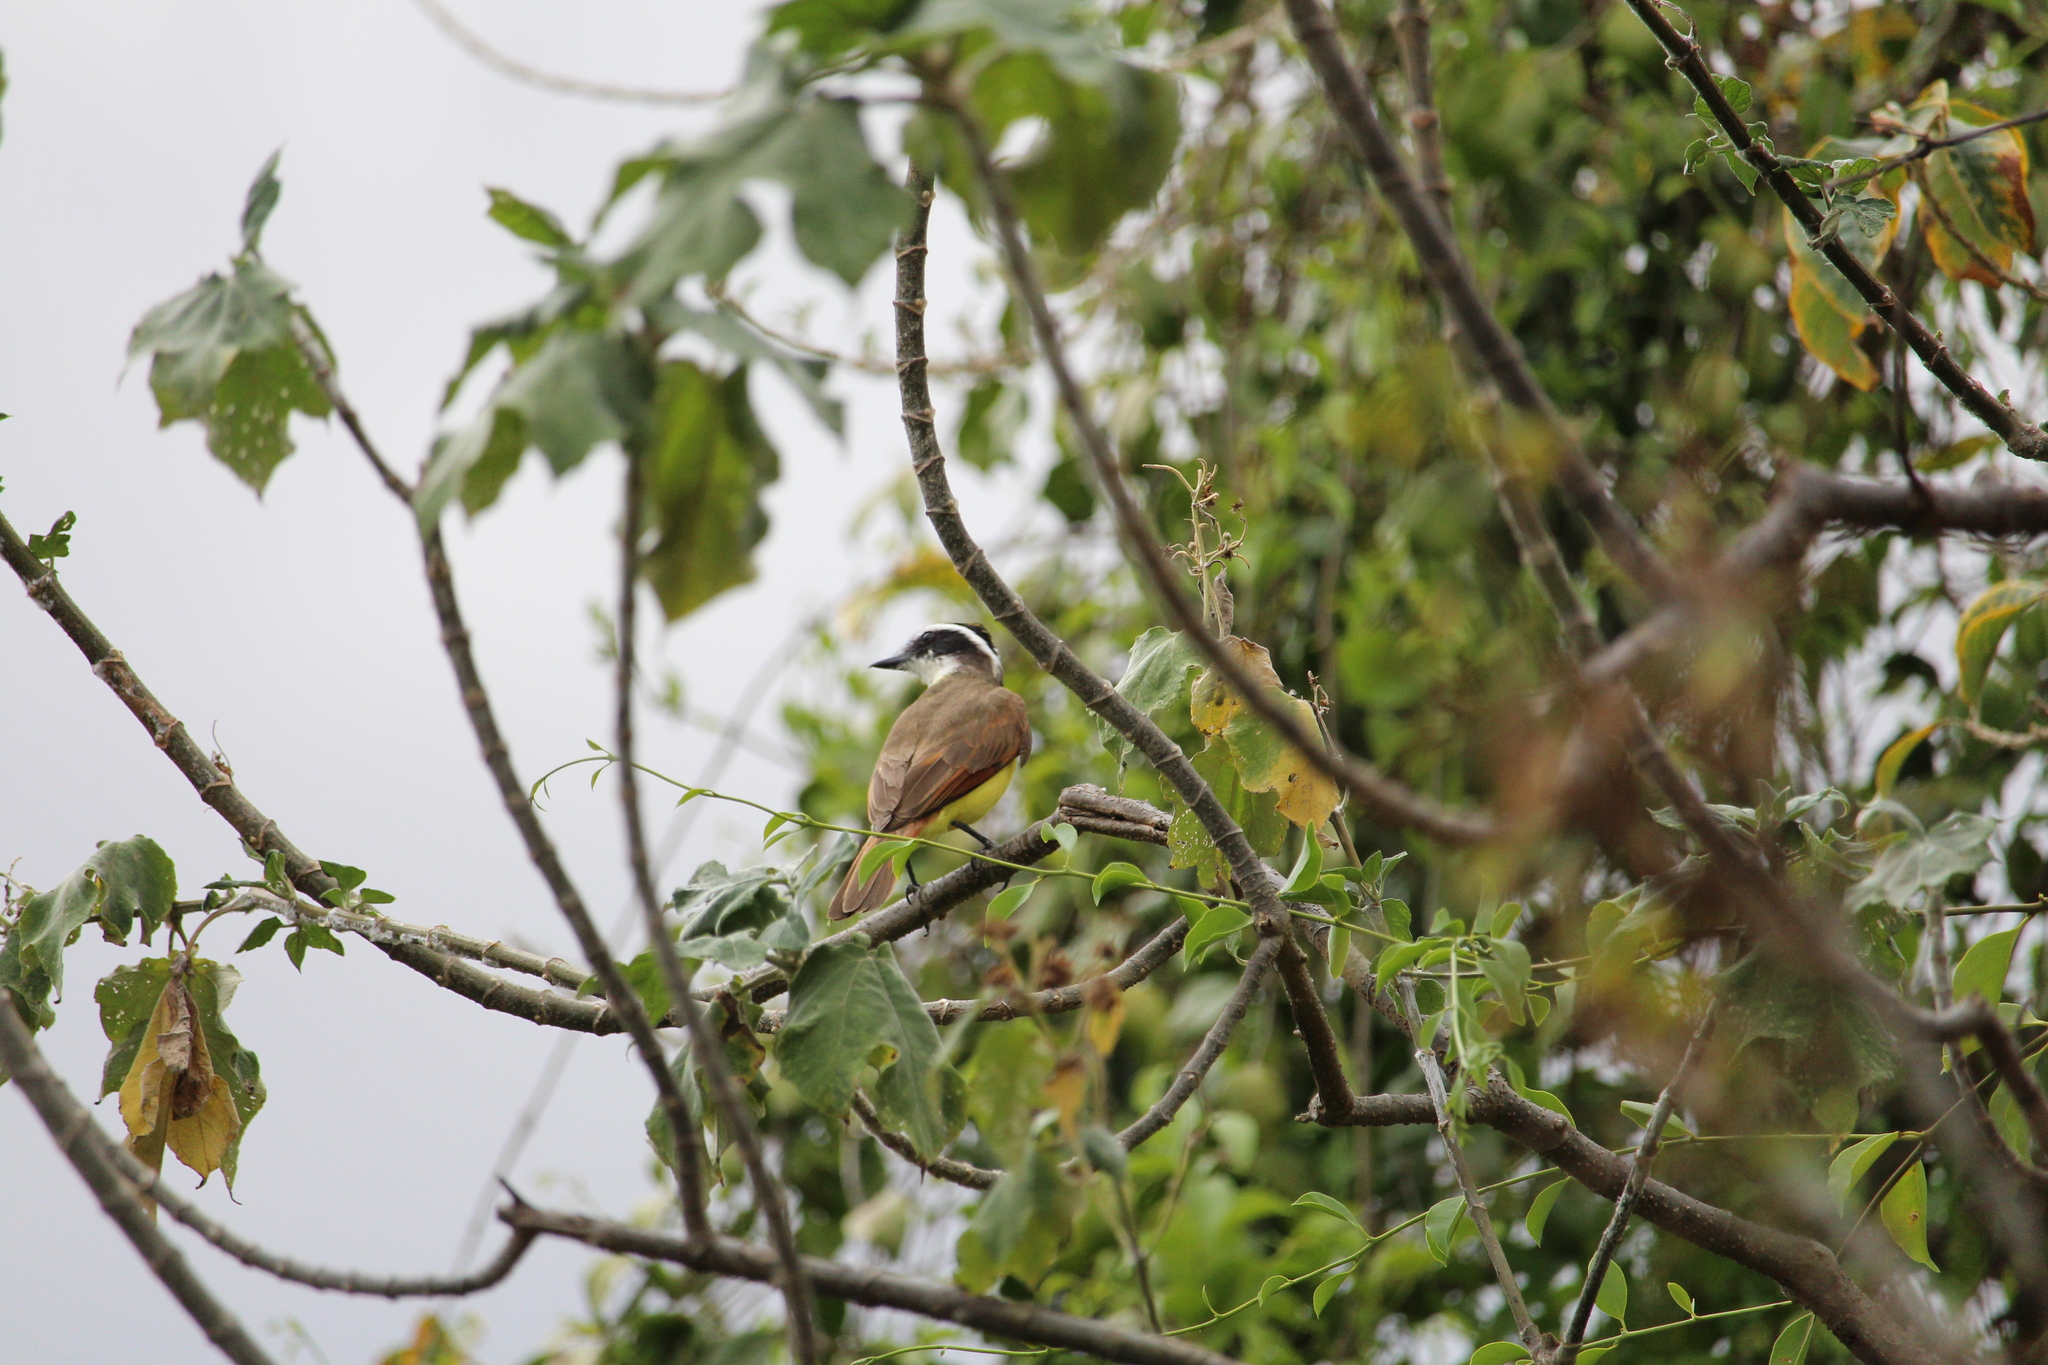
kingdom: Animalia
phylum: Chordata
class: Aves
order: Passeriformes
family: Tyrannidae
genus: Pitangus
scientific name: Pitangus sulphuratus
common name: Great kiskadee
